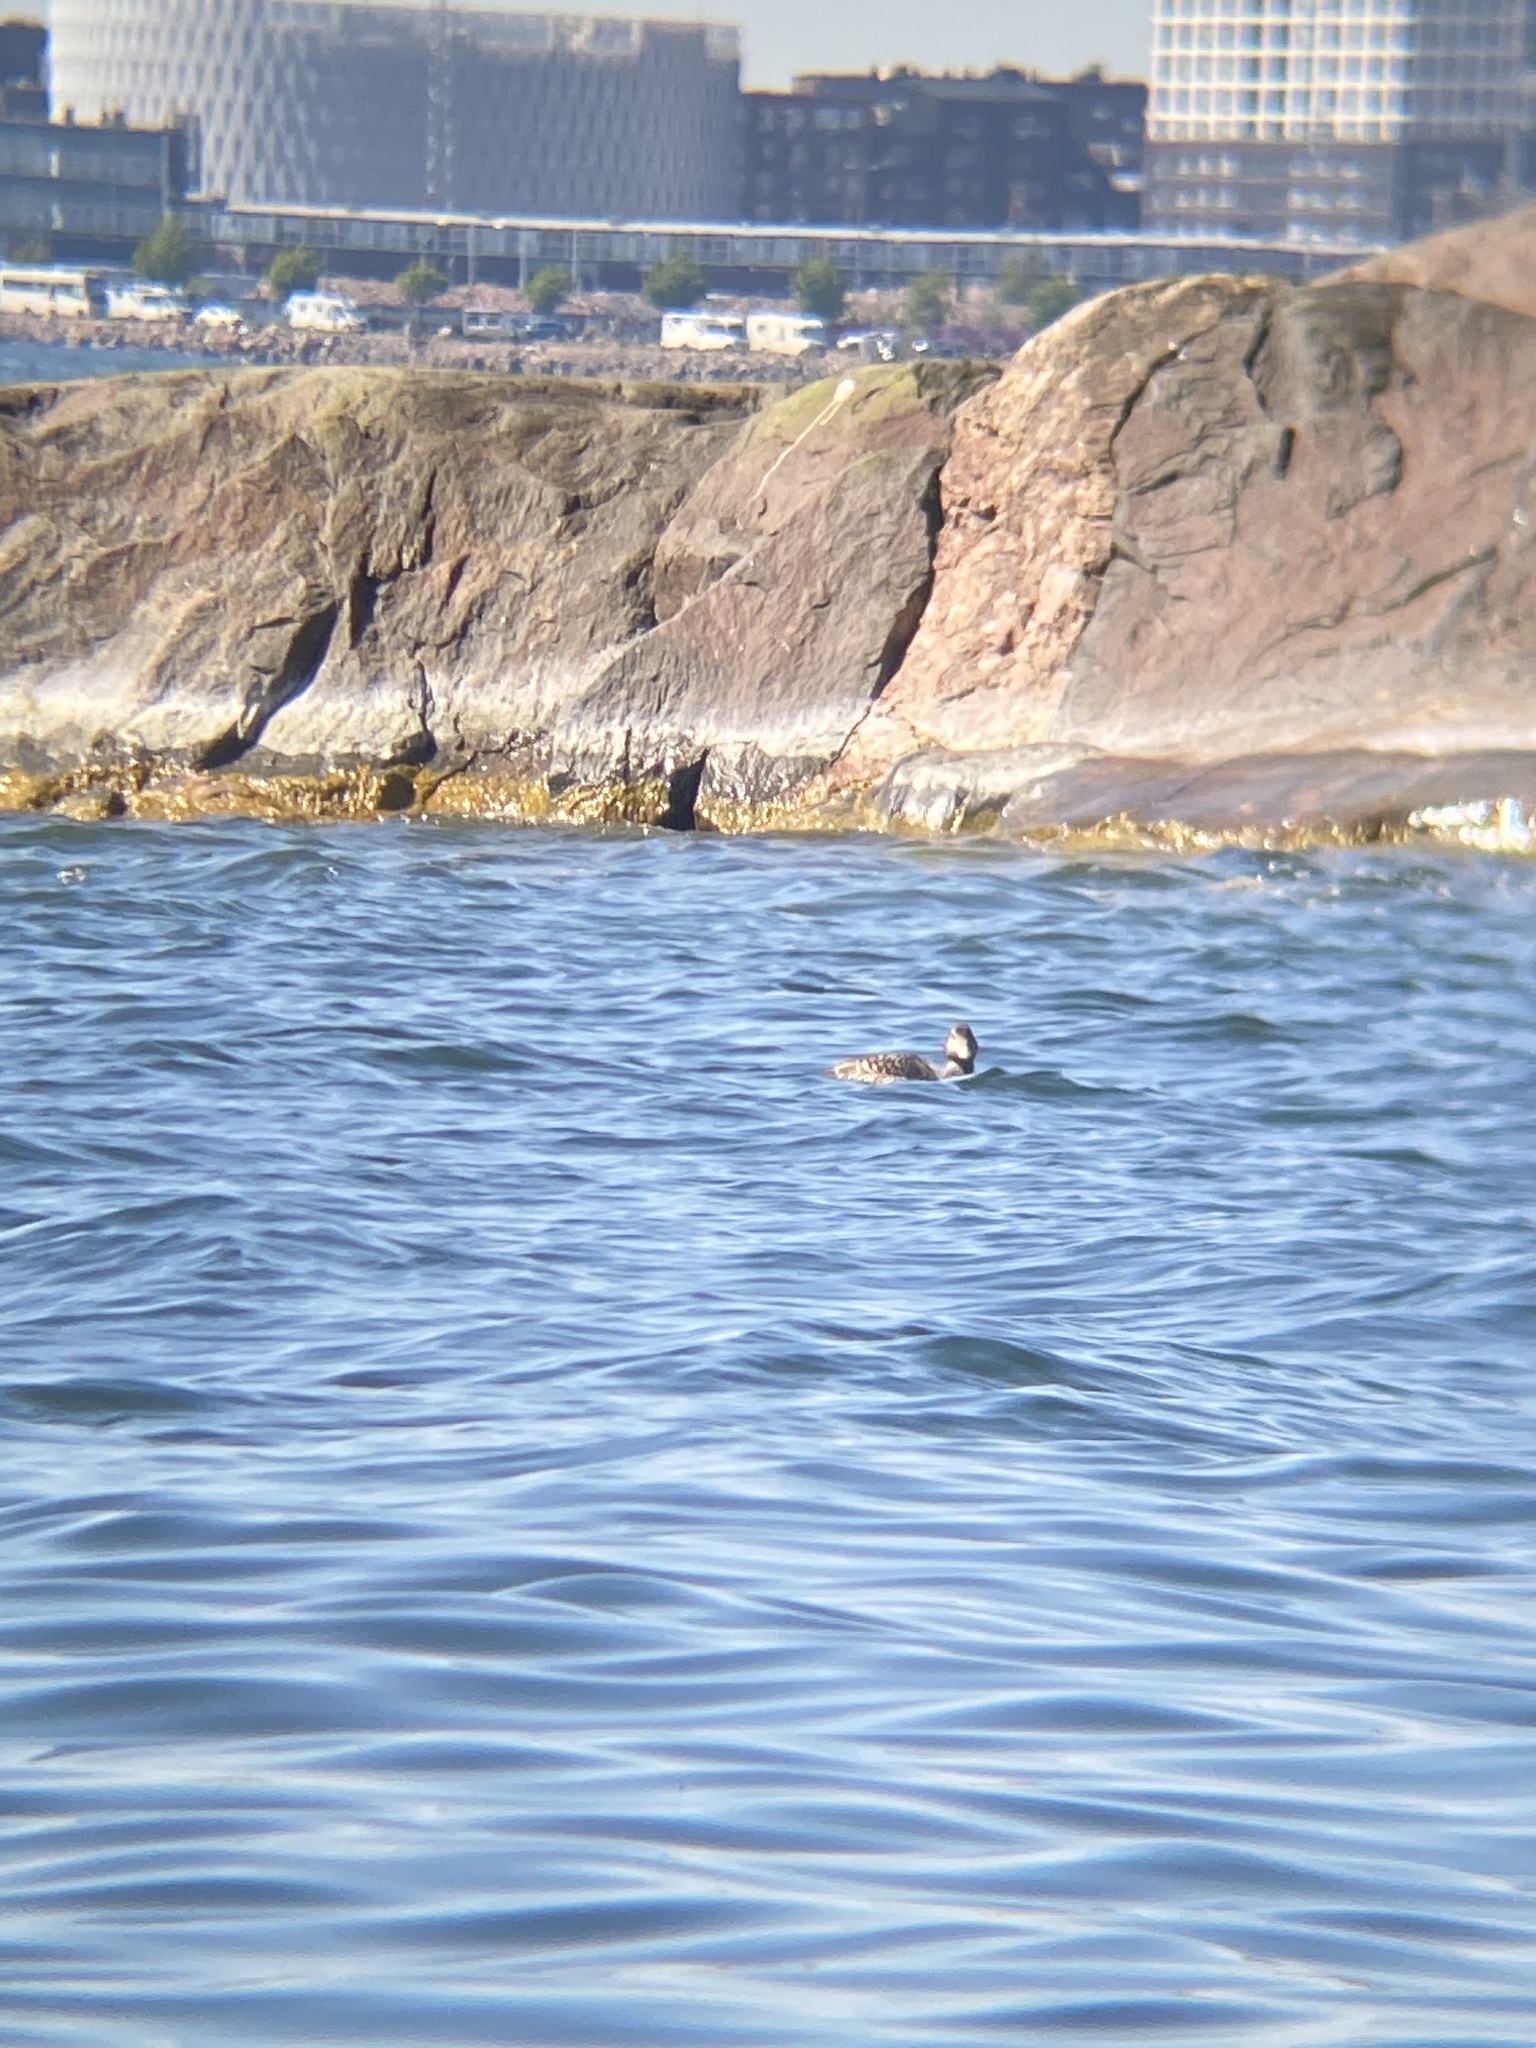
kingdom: Animalia
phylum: Chordata
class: Aves
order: Anseriformes
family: Anatidae
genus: Somateria
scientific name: Somateria mollissima
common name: Common eider
